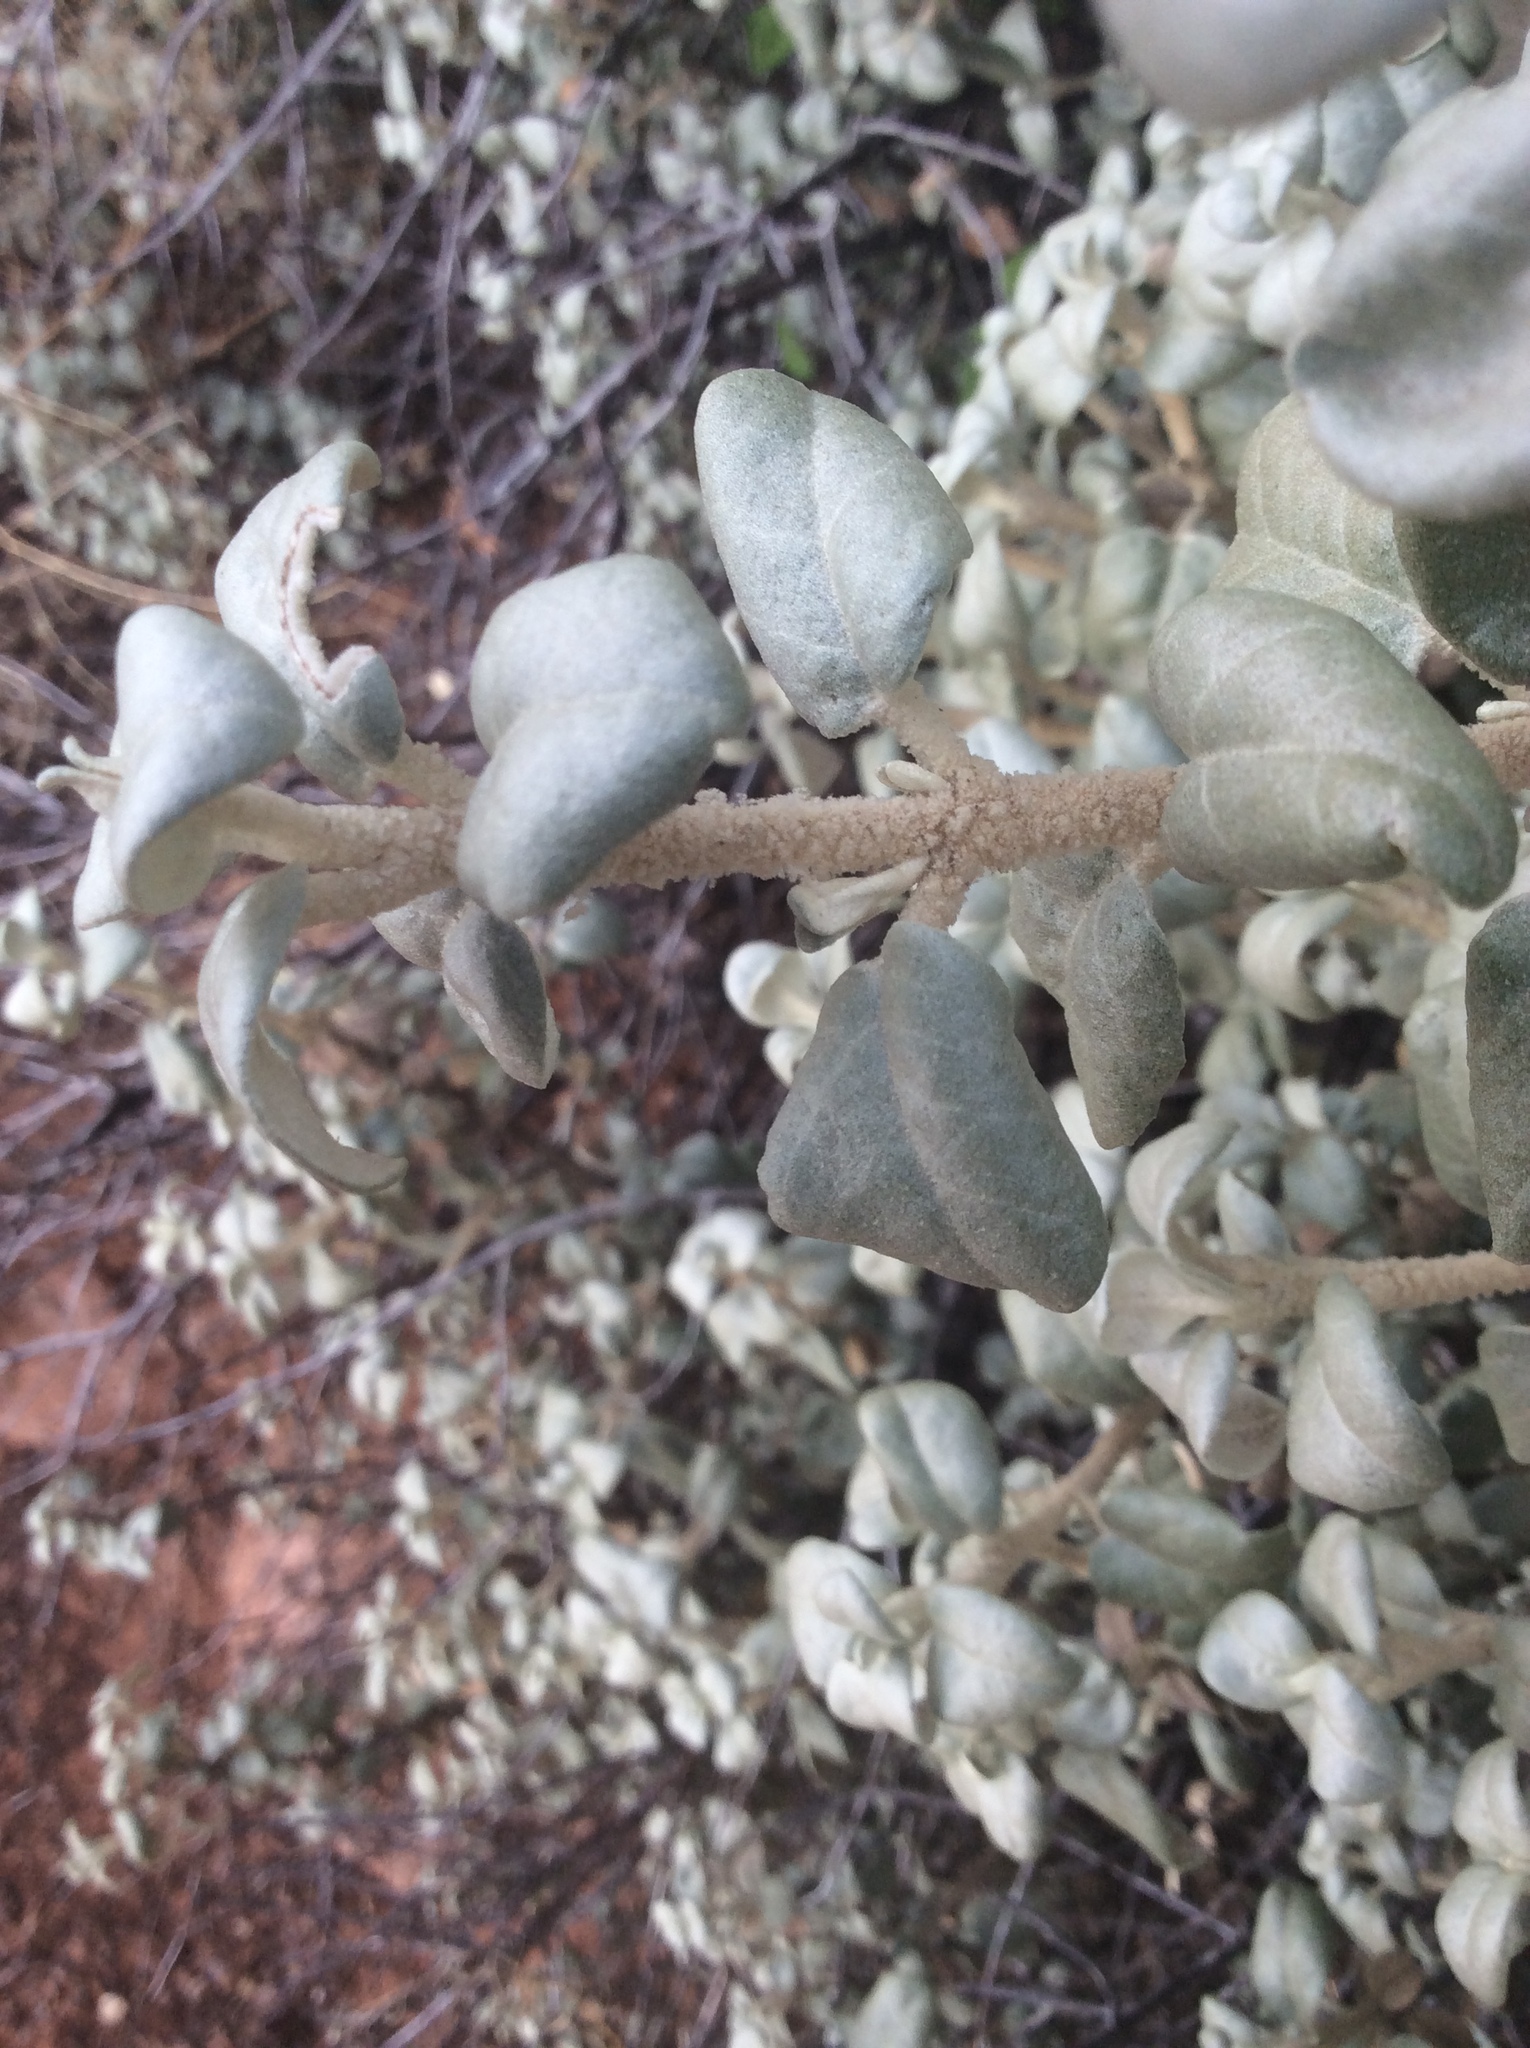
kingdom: Plantae
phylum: Tracheophyta
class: Magnoliopsida
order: Rosales
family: Elaeagnaceae
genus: Shepherdia
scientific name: Shepherdia rotundifolia
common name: Silverscale
